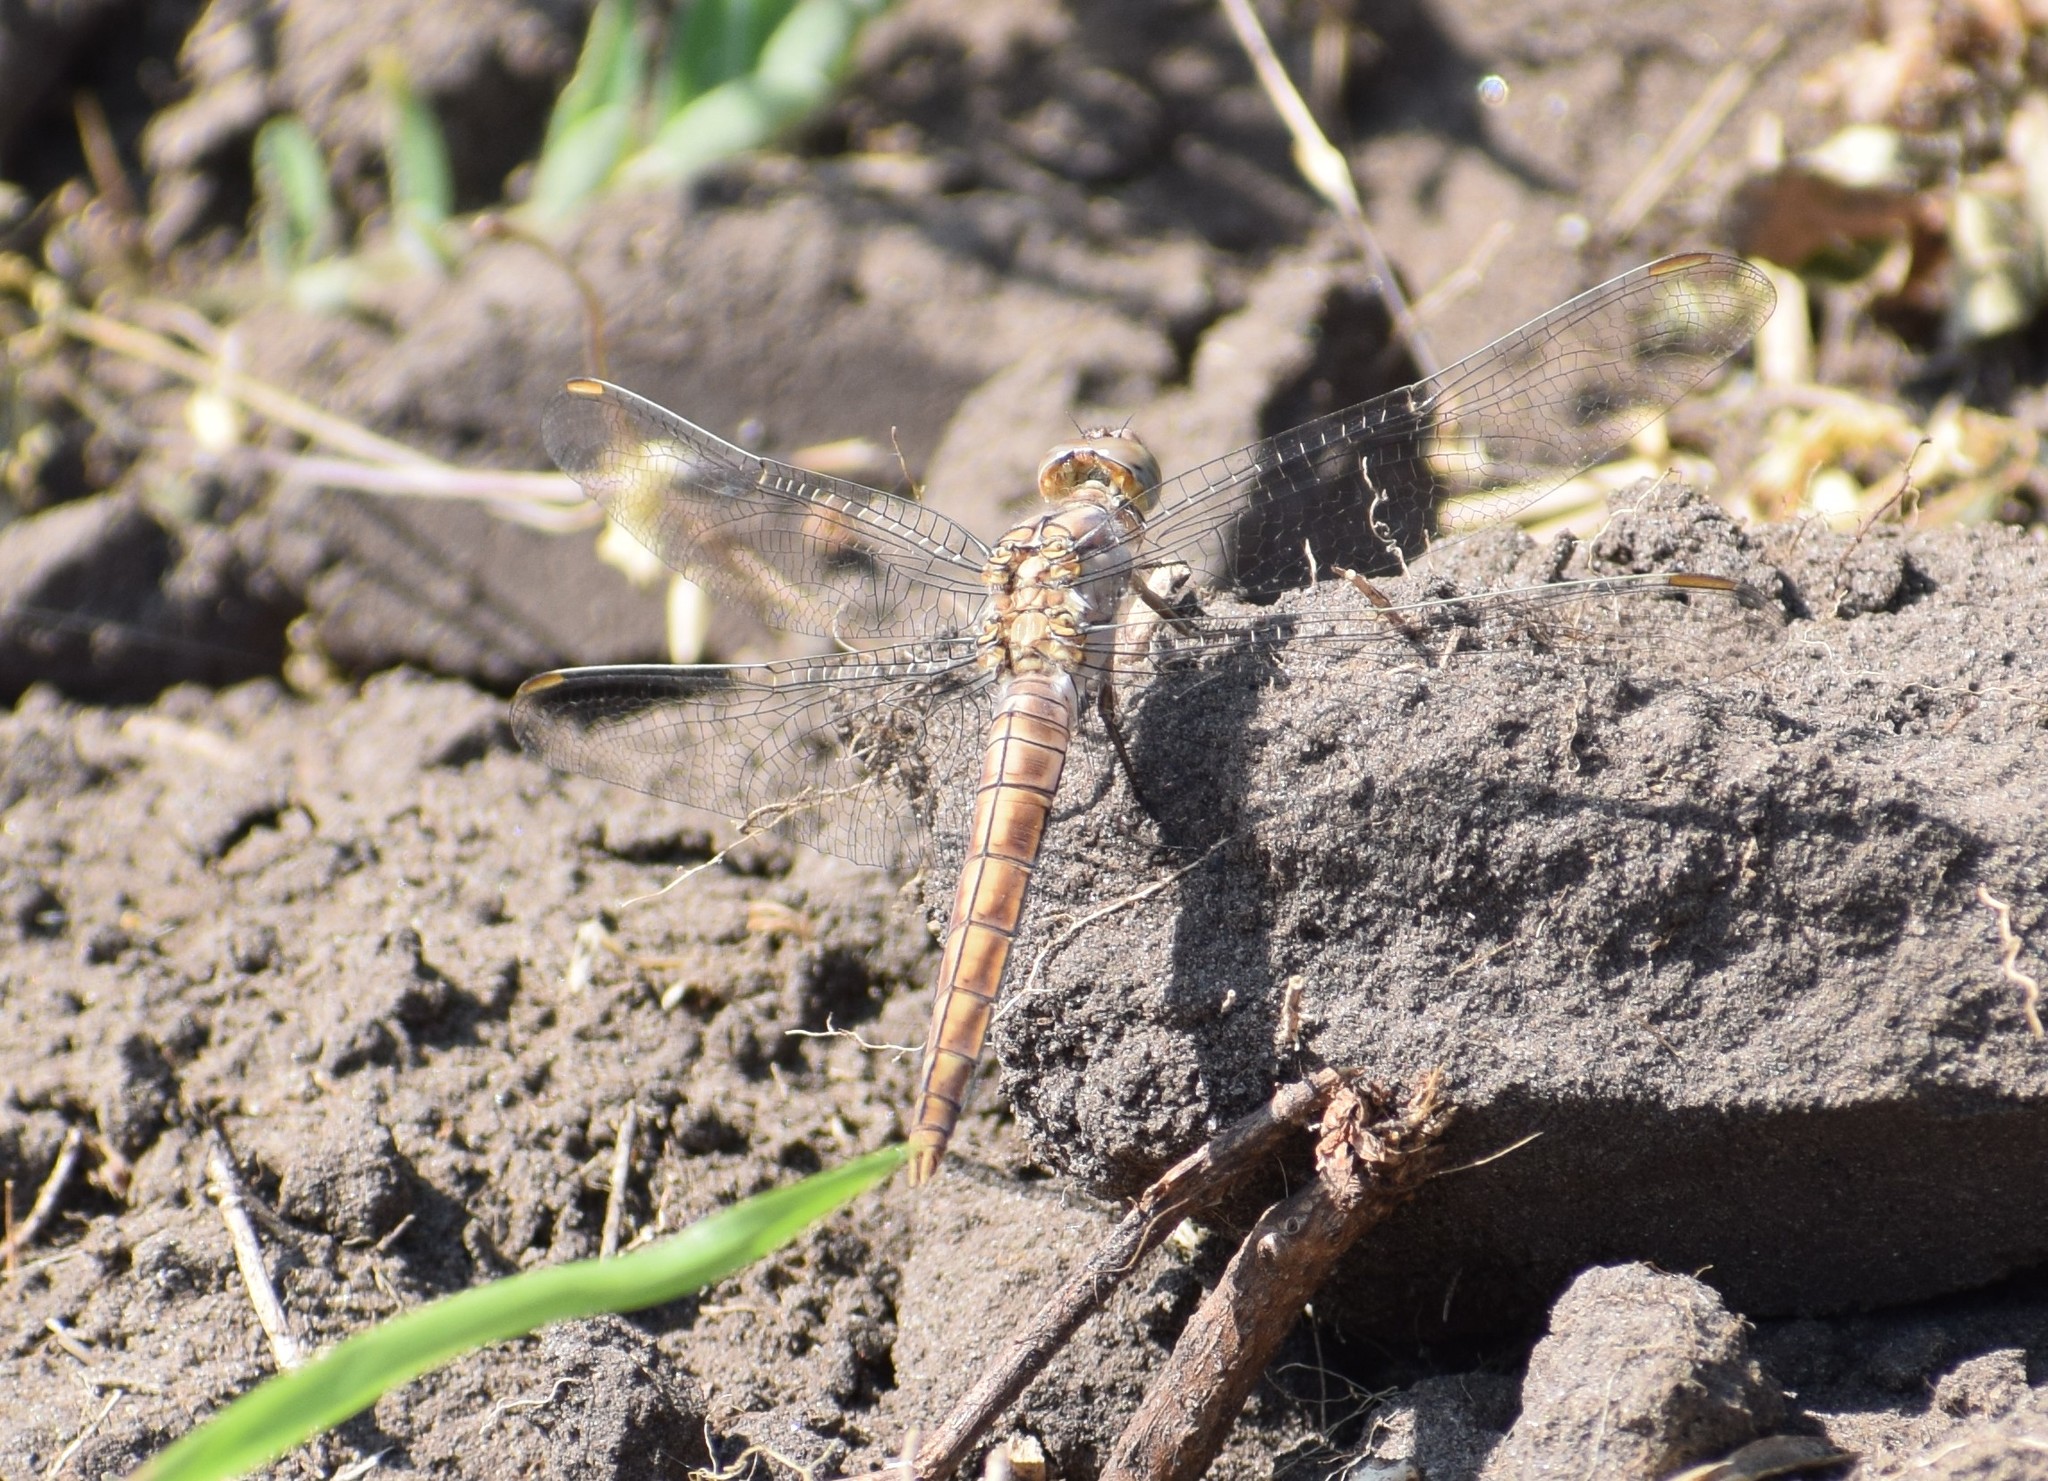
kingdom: Animalia
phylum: Arthropoda
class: Insecta
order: Odonata
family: Libellulidae
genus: Orthetrum
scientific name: Orthetrum brunneum
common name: Southern skimmer
